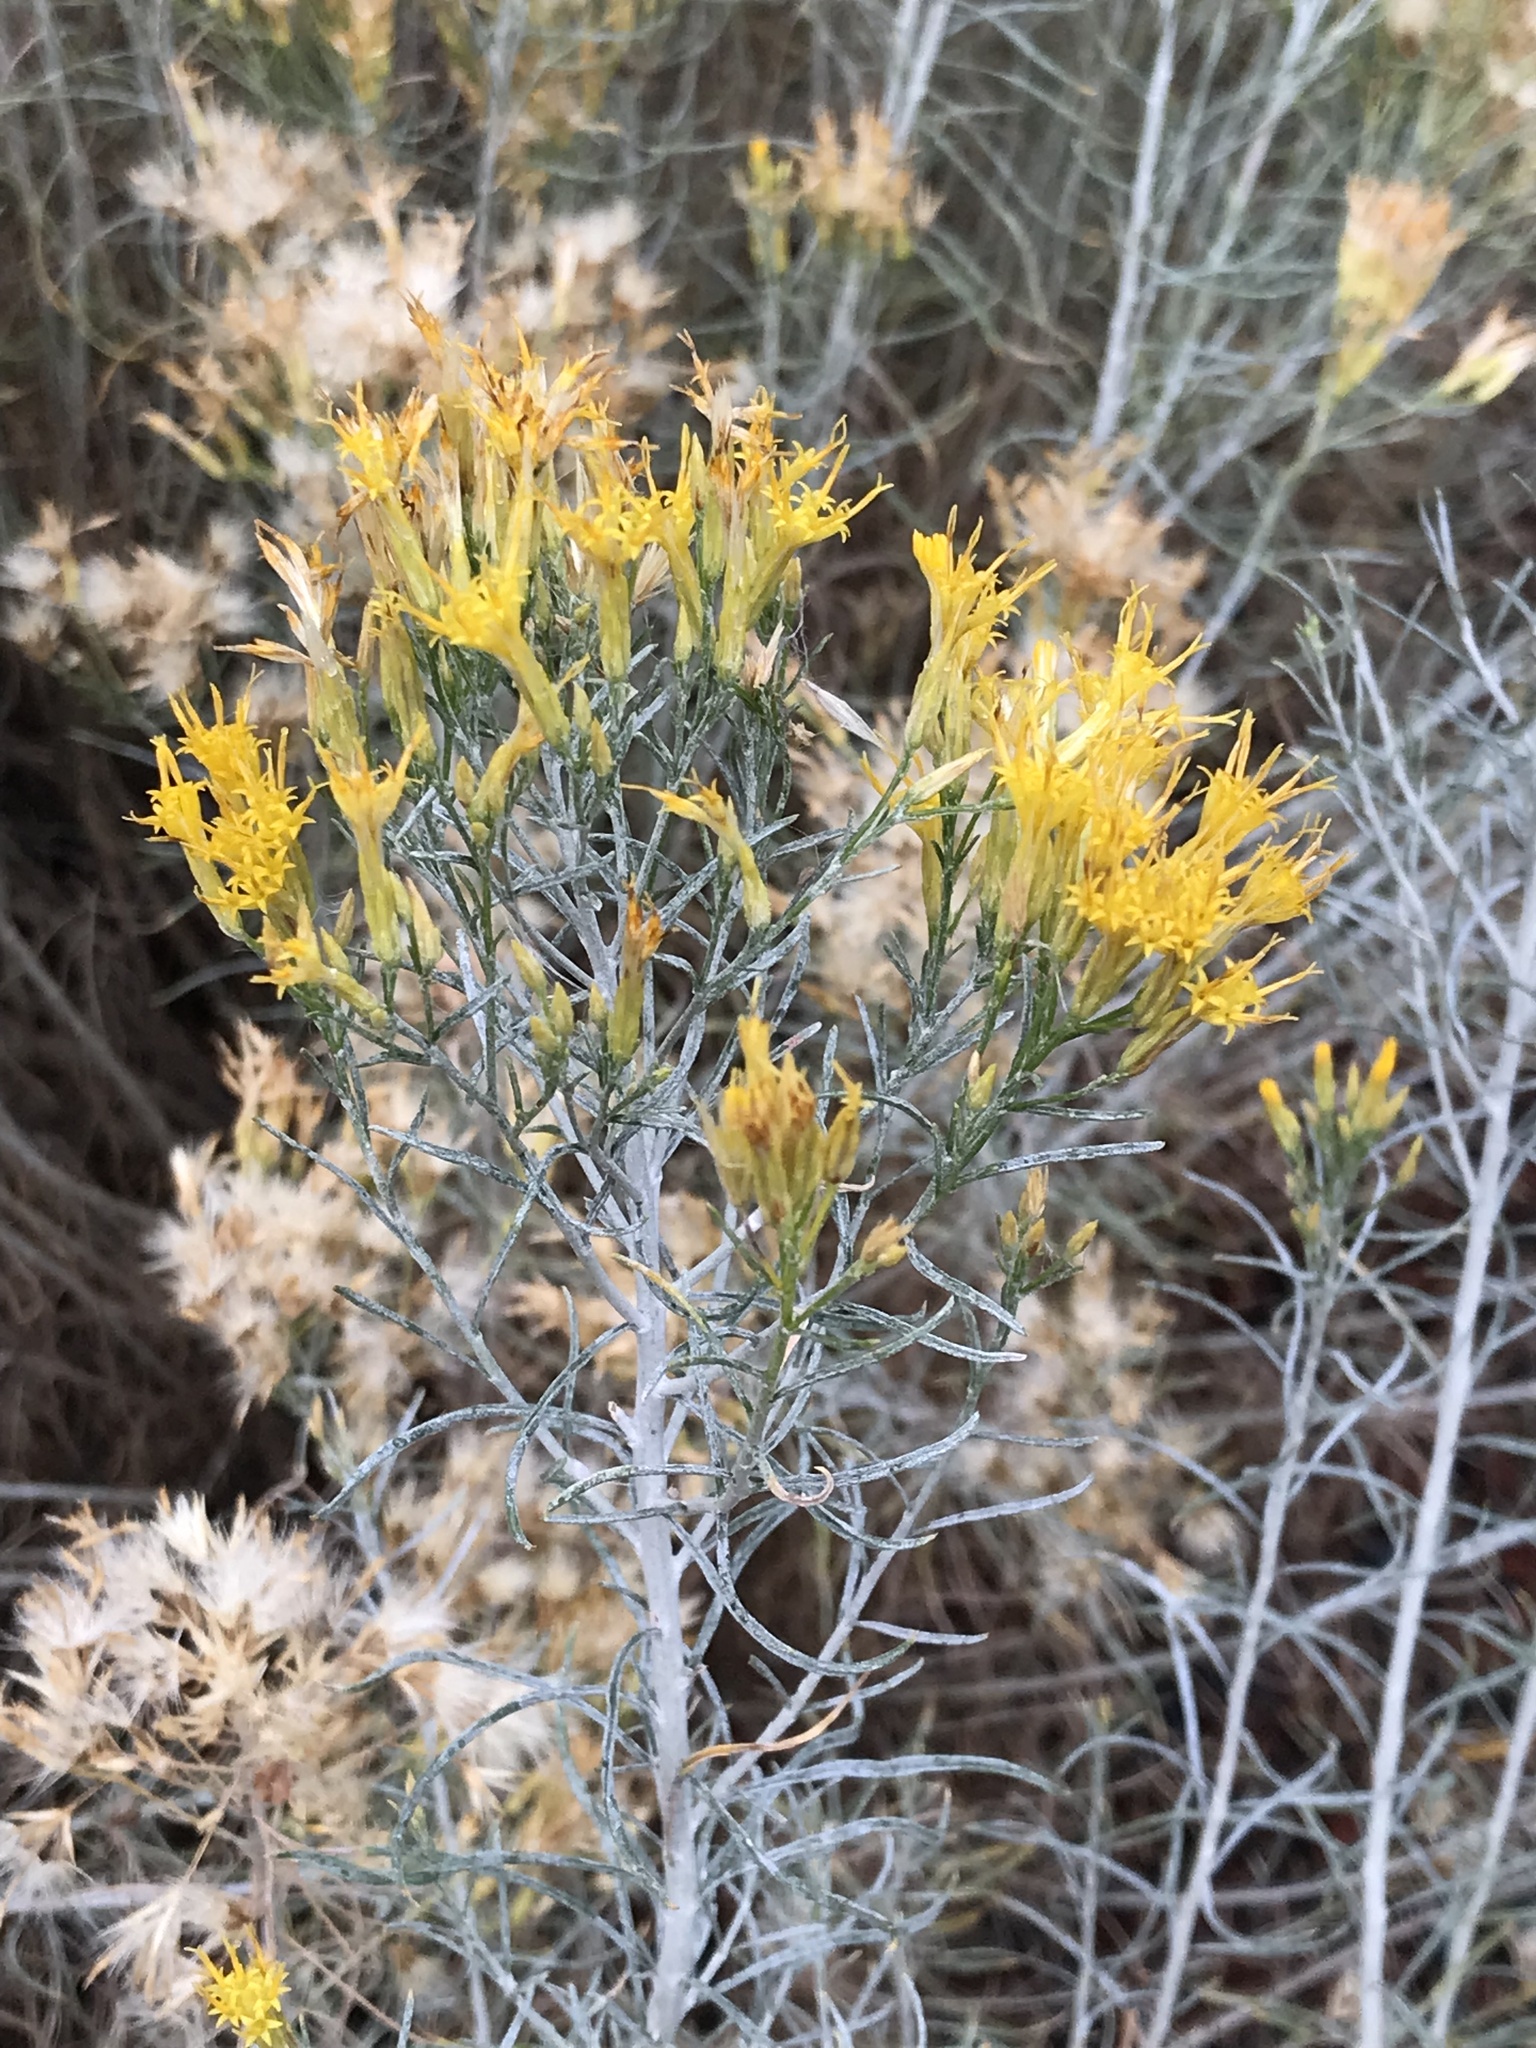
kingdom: Plantae
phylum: Tracheophyta
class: Magnoliopsida
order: Asterales
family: Asteraceae
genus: Ericameria
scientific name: Ericameria nauseosa
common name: Rubber rabbitbrush
